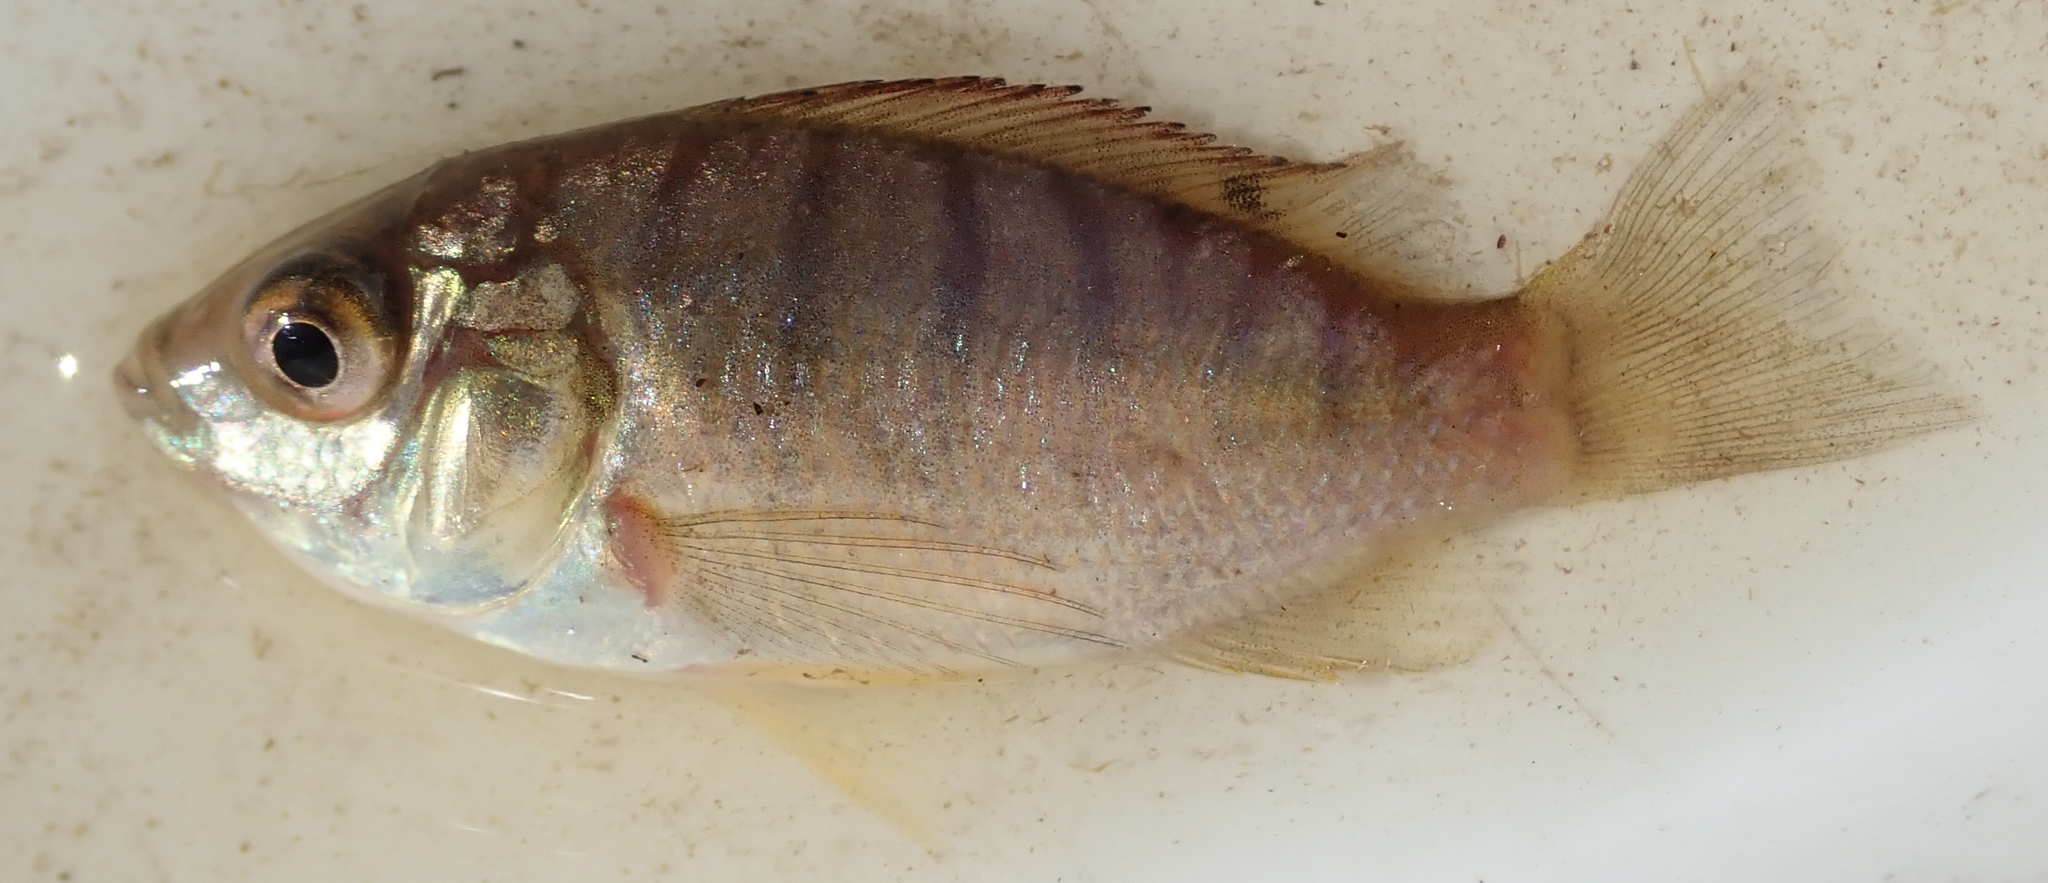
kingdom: Animalia
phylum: Chordata
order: Perciformes
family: Cichlidae
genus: Oreochromis
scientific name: Oreochromis macrochir
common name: Greenhead tilapia
